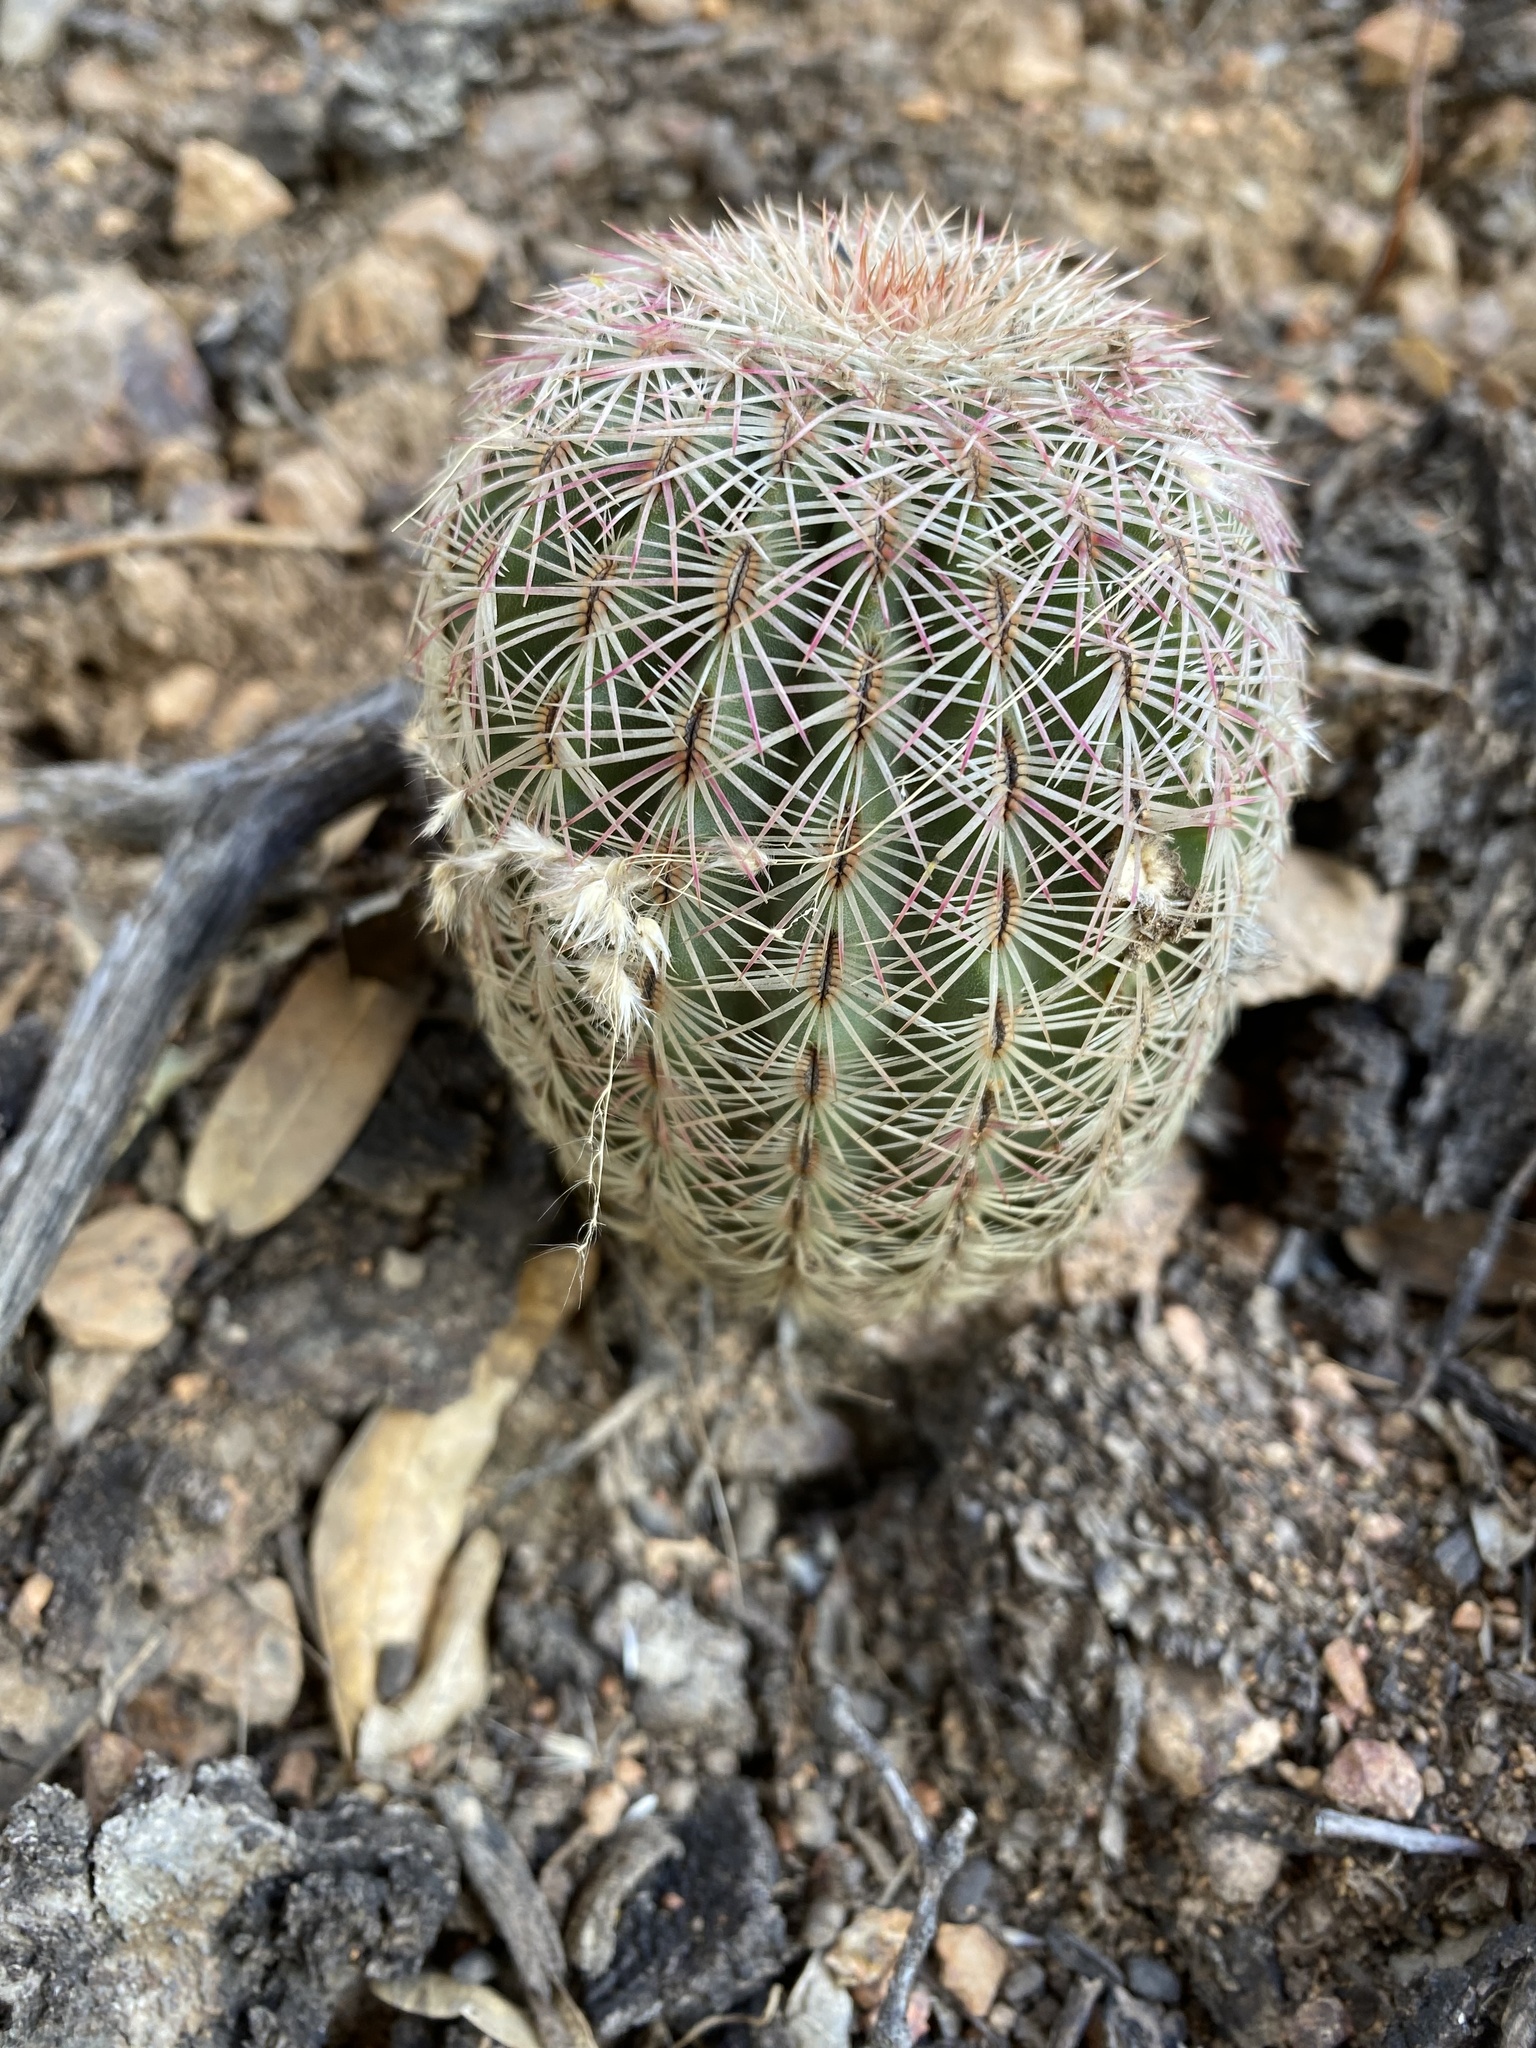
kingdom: Plantae
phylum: Tracheophyta
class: Magnoliopsida
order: Caryophyllales
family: Cactaceae
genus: Echinocereus
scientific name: Echinocereus rigidissimus
